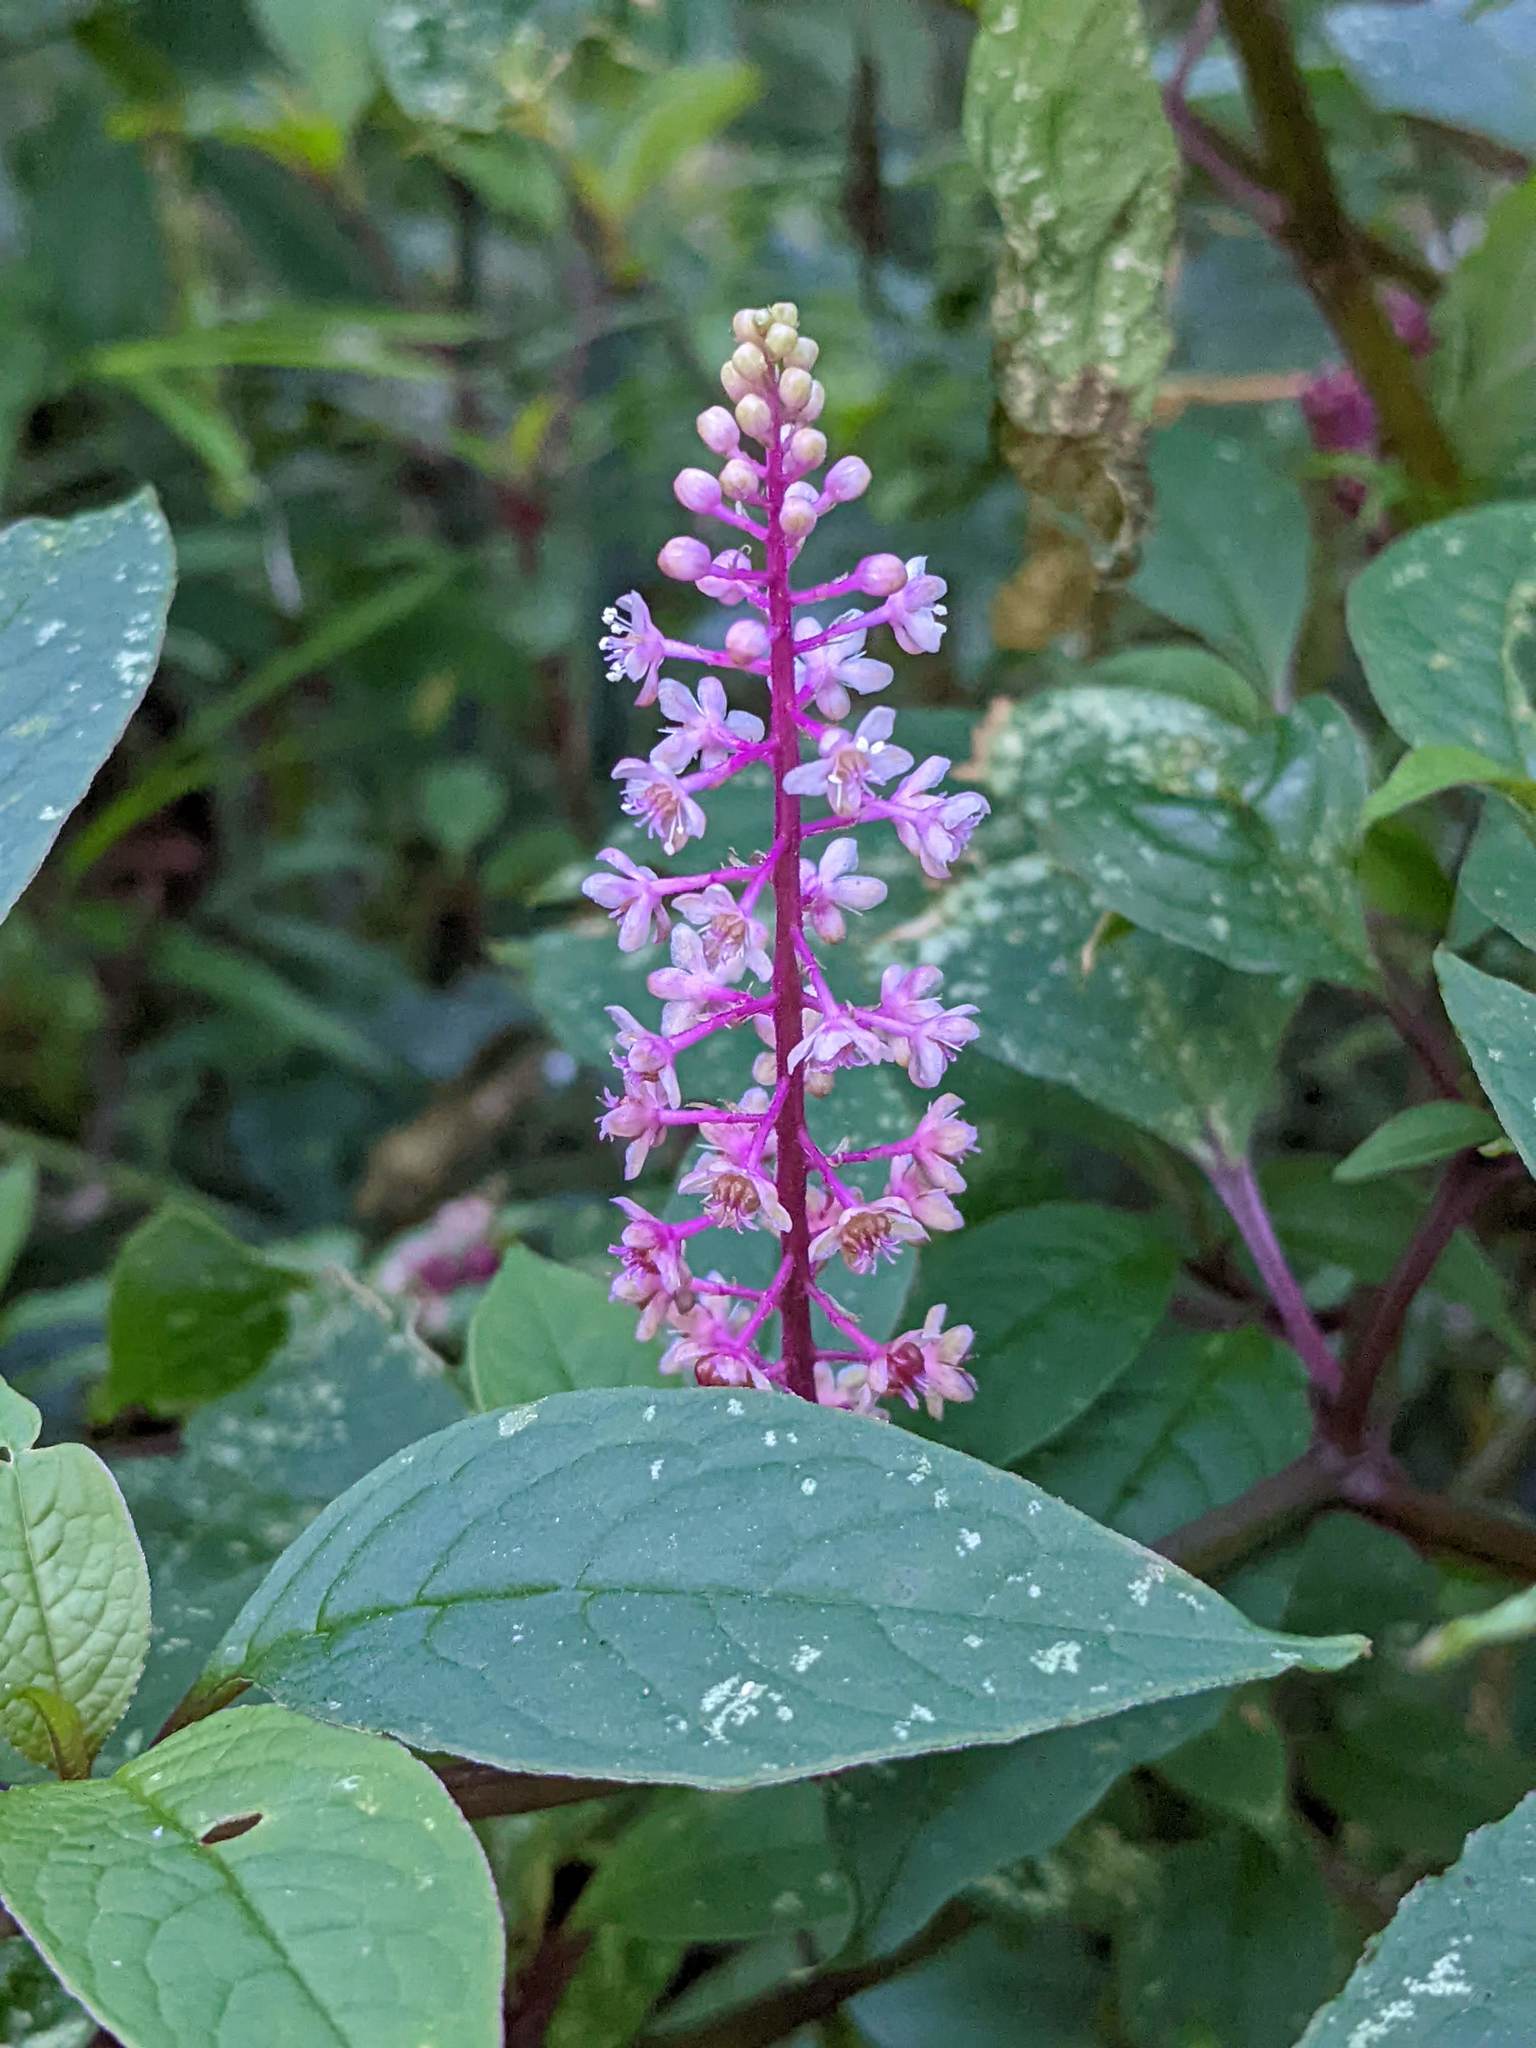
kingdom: Plantae
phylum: Tracheophyta
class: Magnoliopsida
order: Caryophyllales
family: Phytolaccaceae
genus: Phytolacca
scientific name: Phytolacca rugosa
